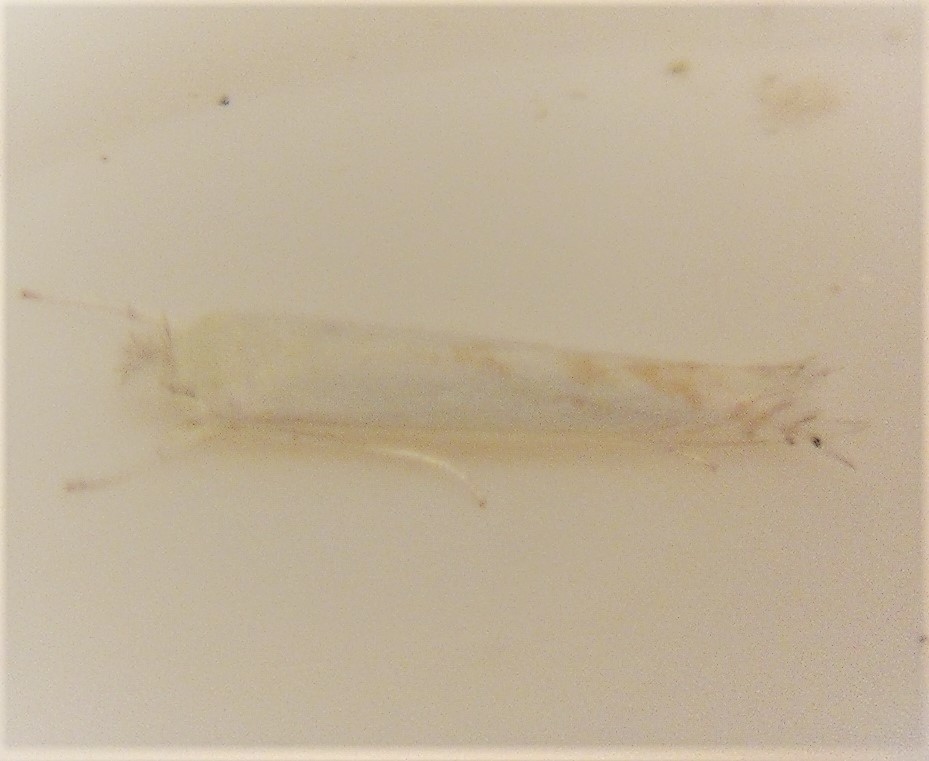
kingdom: Animalia
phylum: Arthropoda
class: Insecta
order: Lepidoptera
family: Lyonetiidae
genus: Stegommata
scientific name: Stegommata sulfuratella
